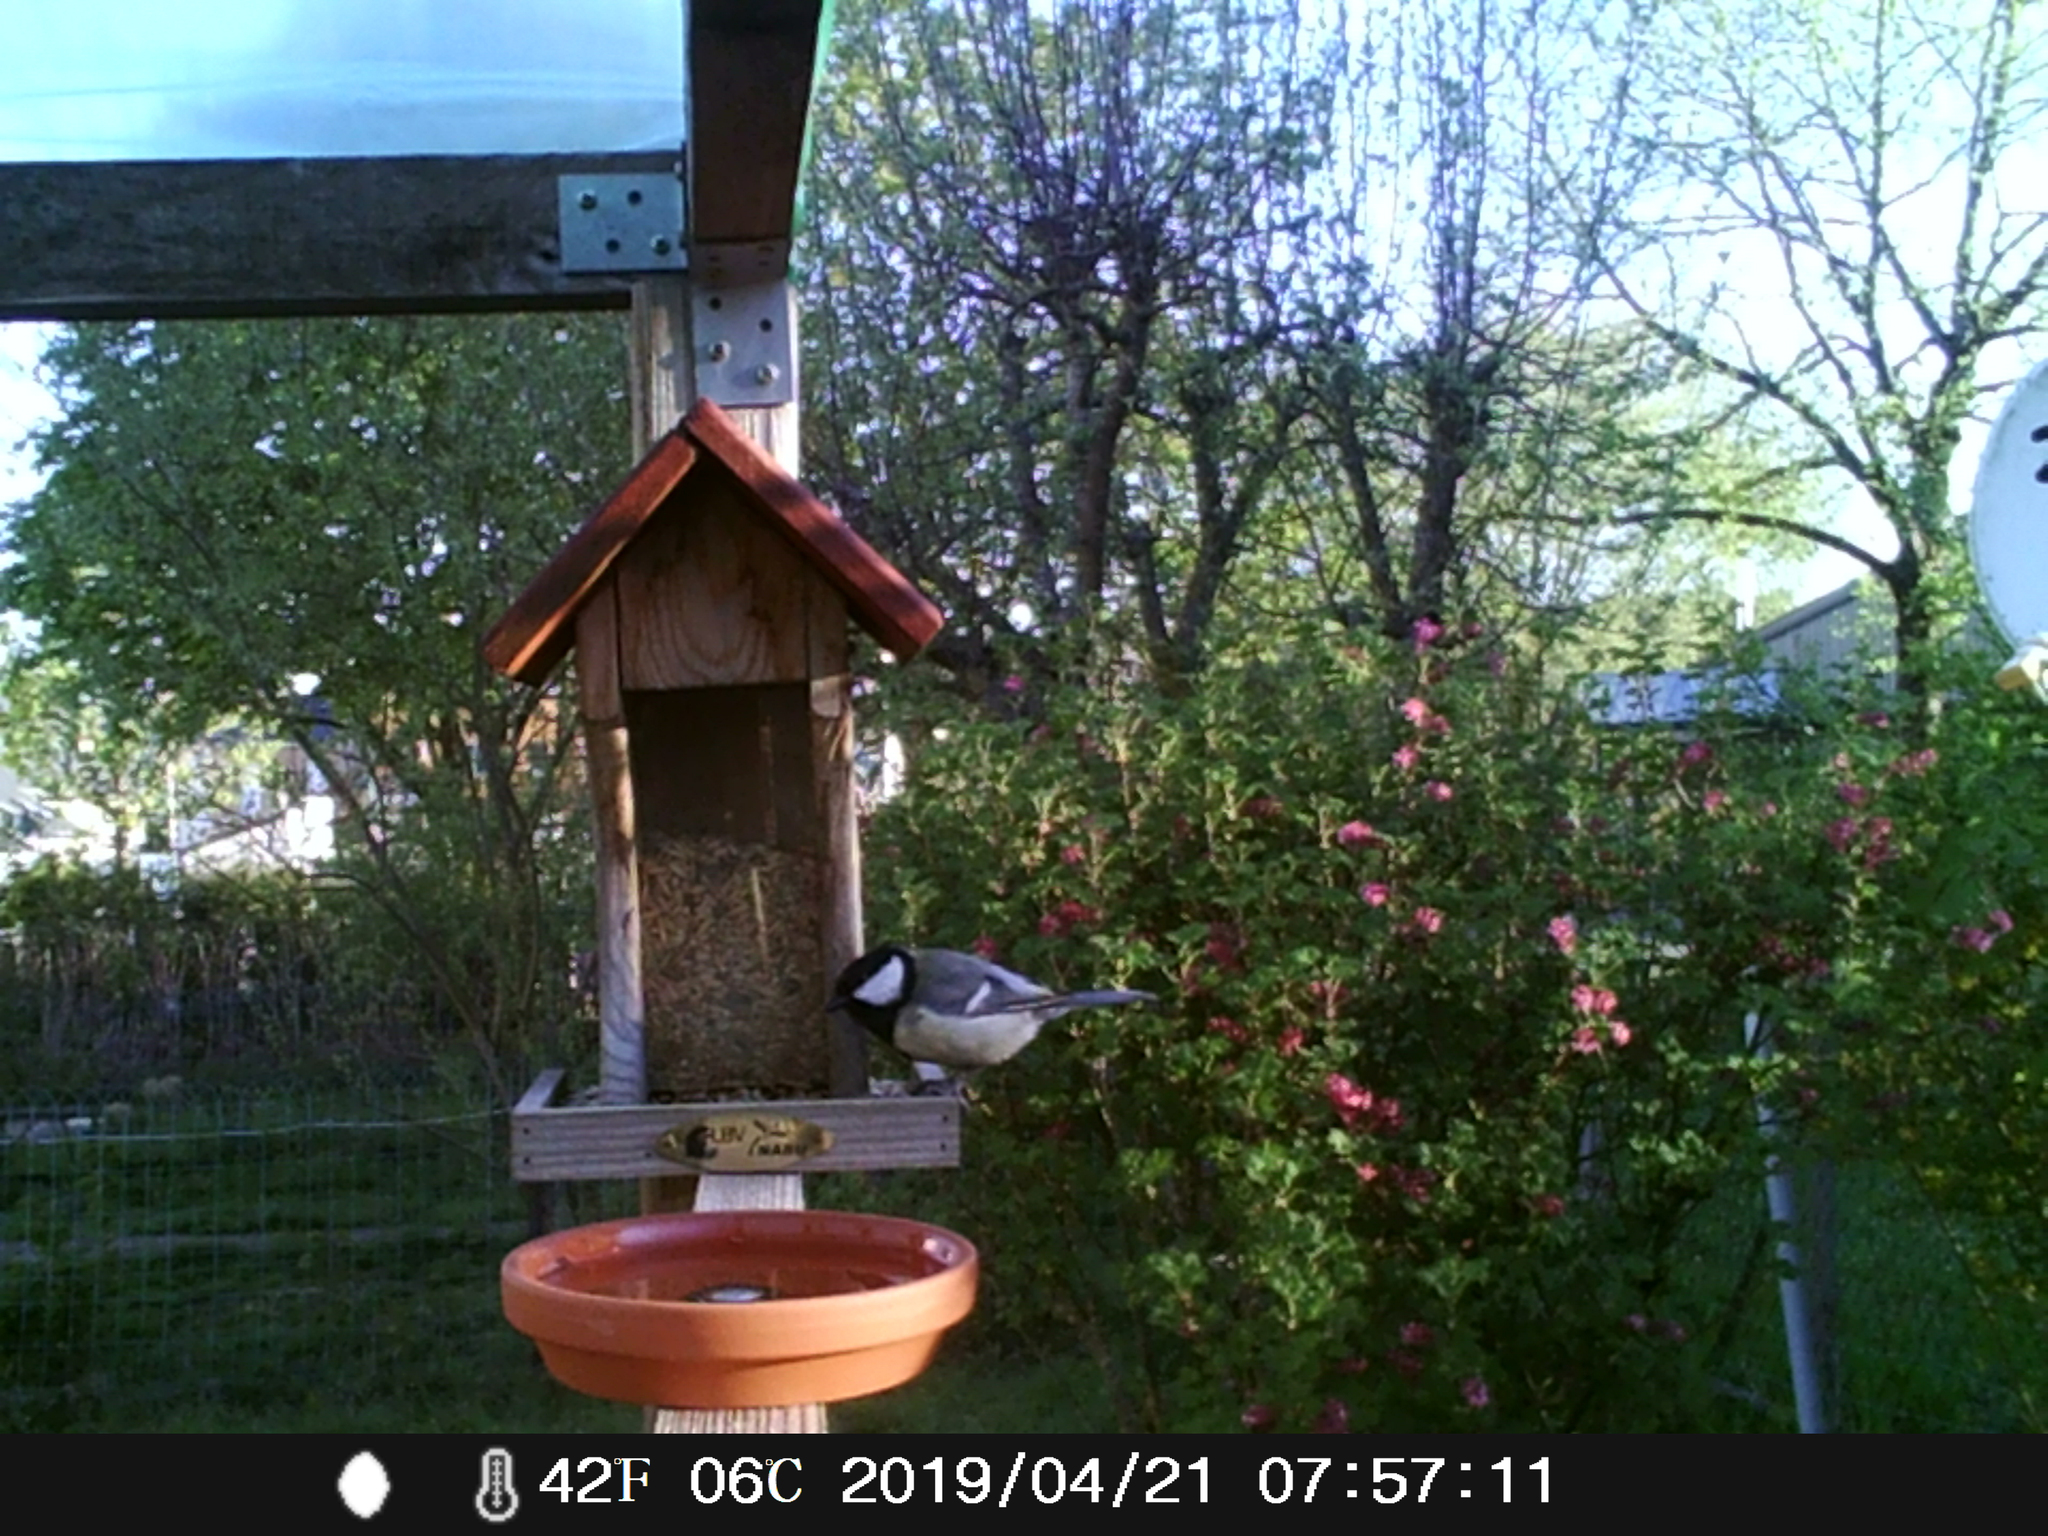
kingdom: Animalia
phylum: Chordata
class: Aves
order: Passeriformes
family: Paridae
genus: Parus
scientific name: Parus major
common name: Great tit
